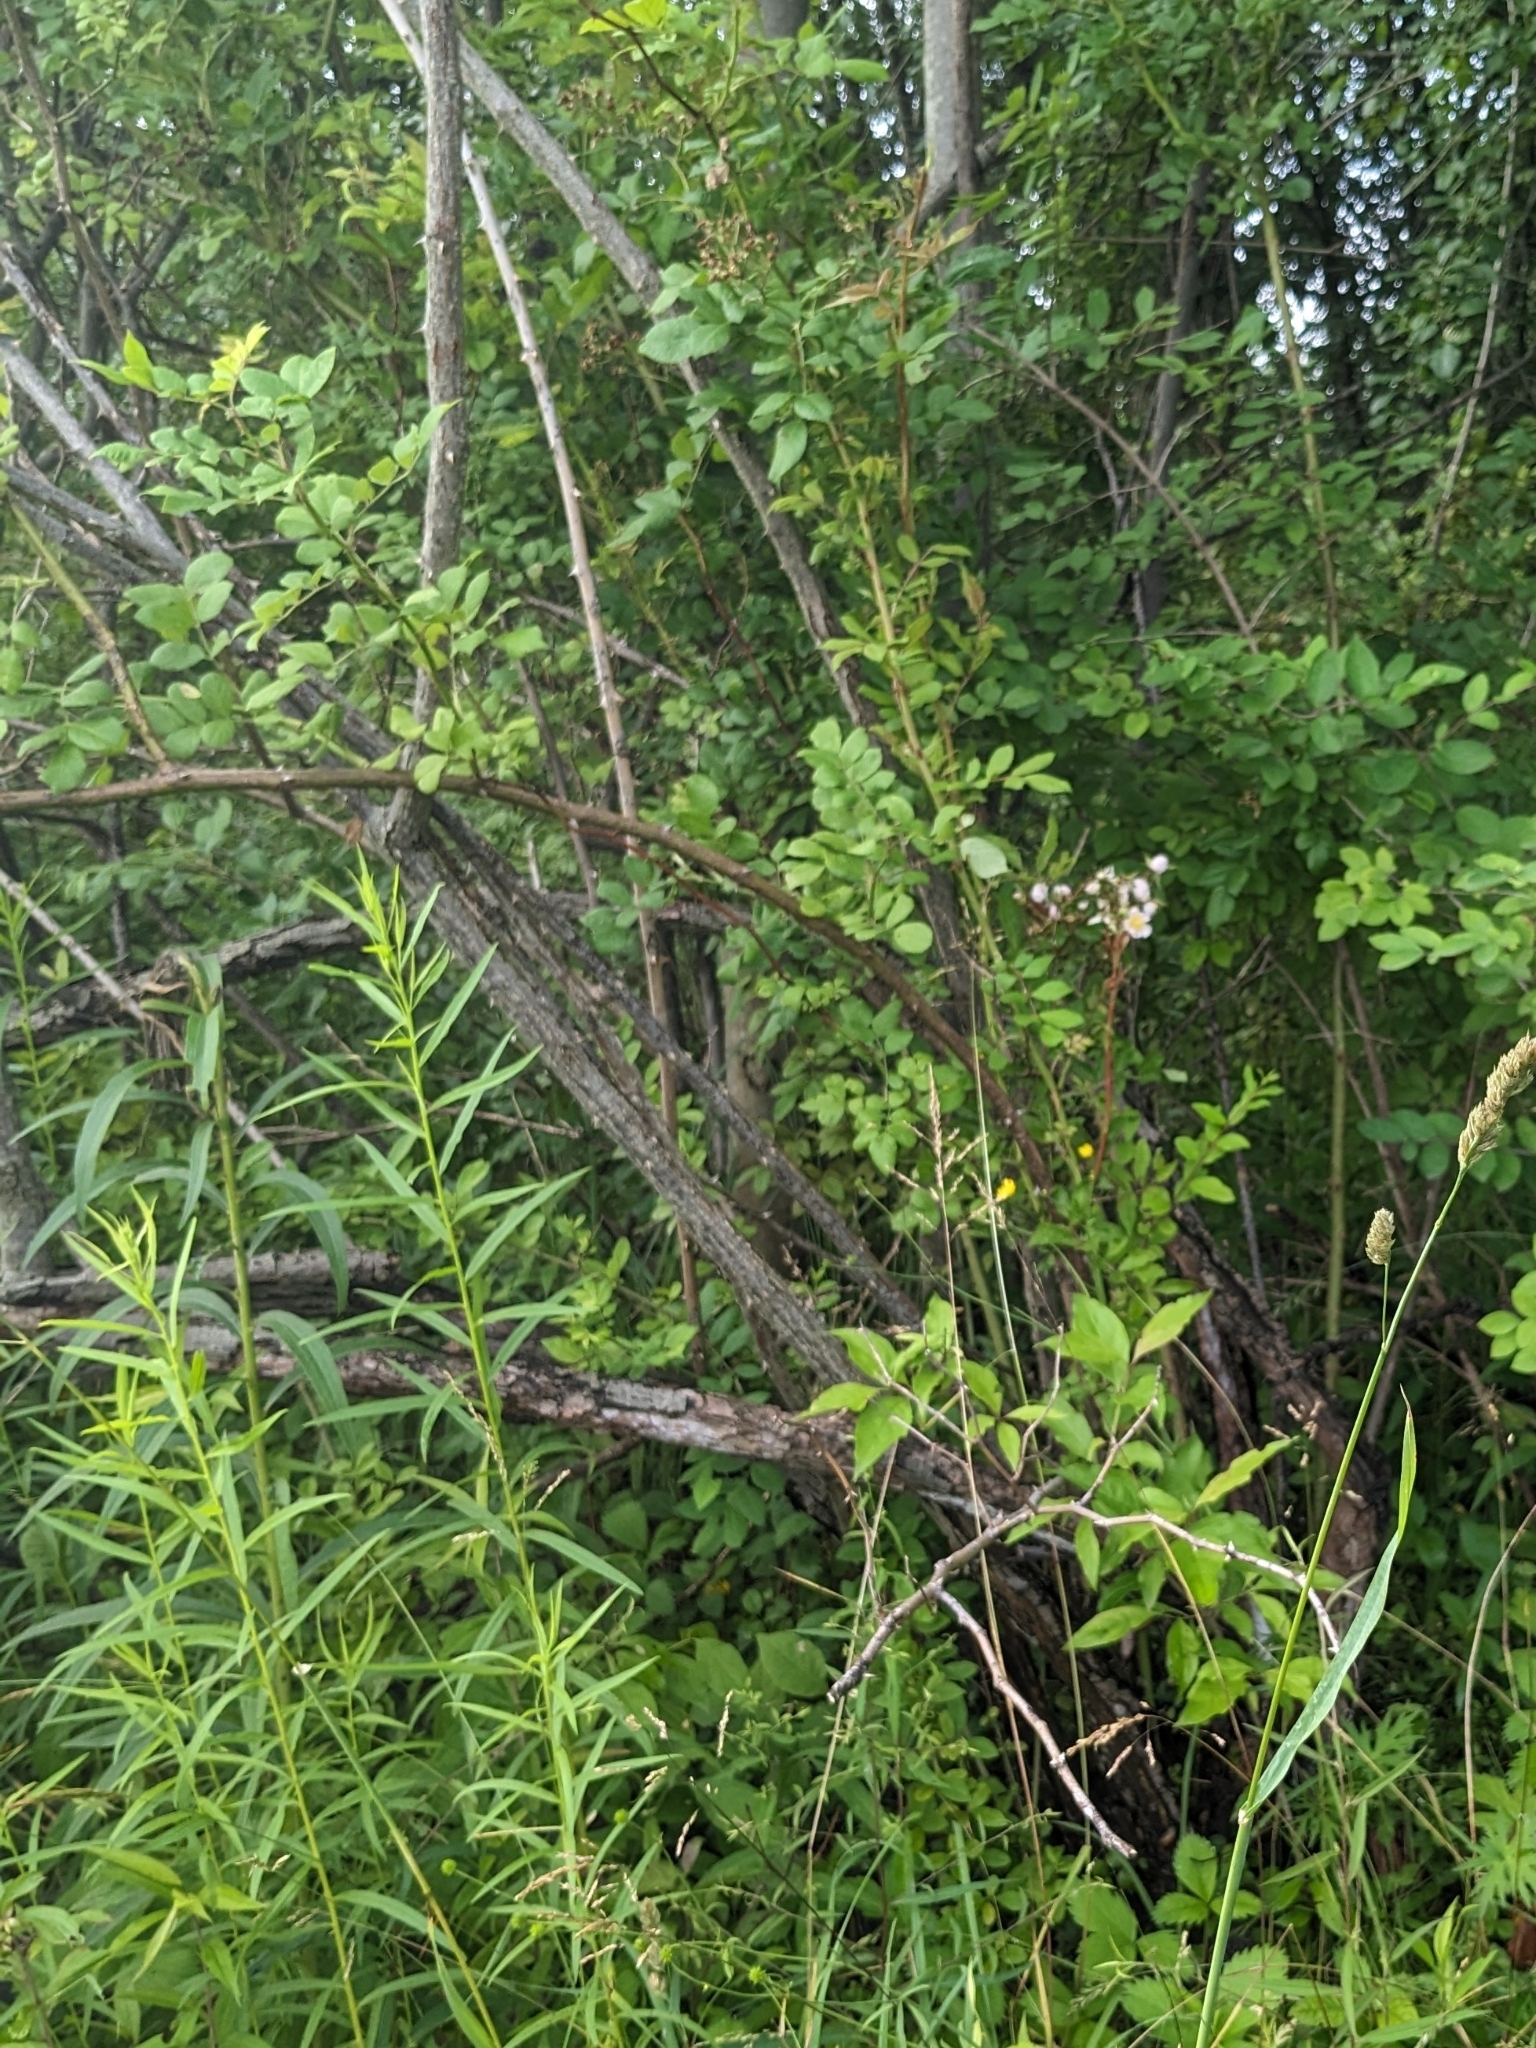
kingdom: Plantae
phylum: Tracheophyta
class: Magnoliopsida
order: Rosales
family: Rosaceae
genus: Rosa
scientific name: Rosa multiflora
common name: Multiflora rose
